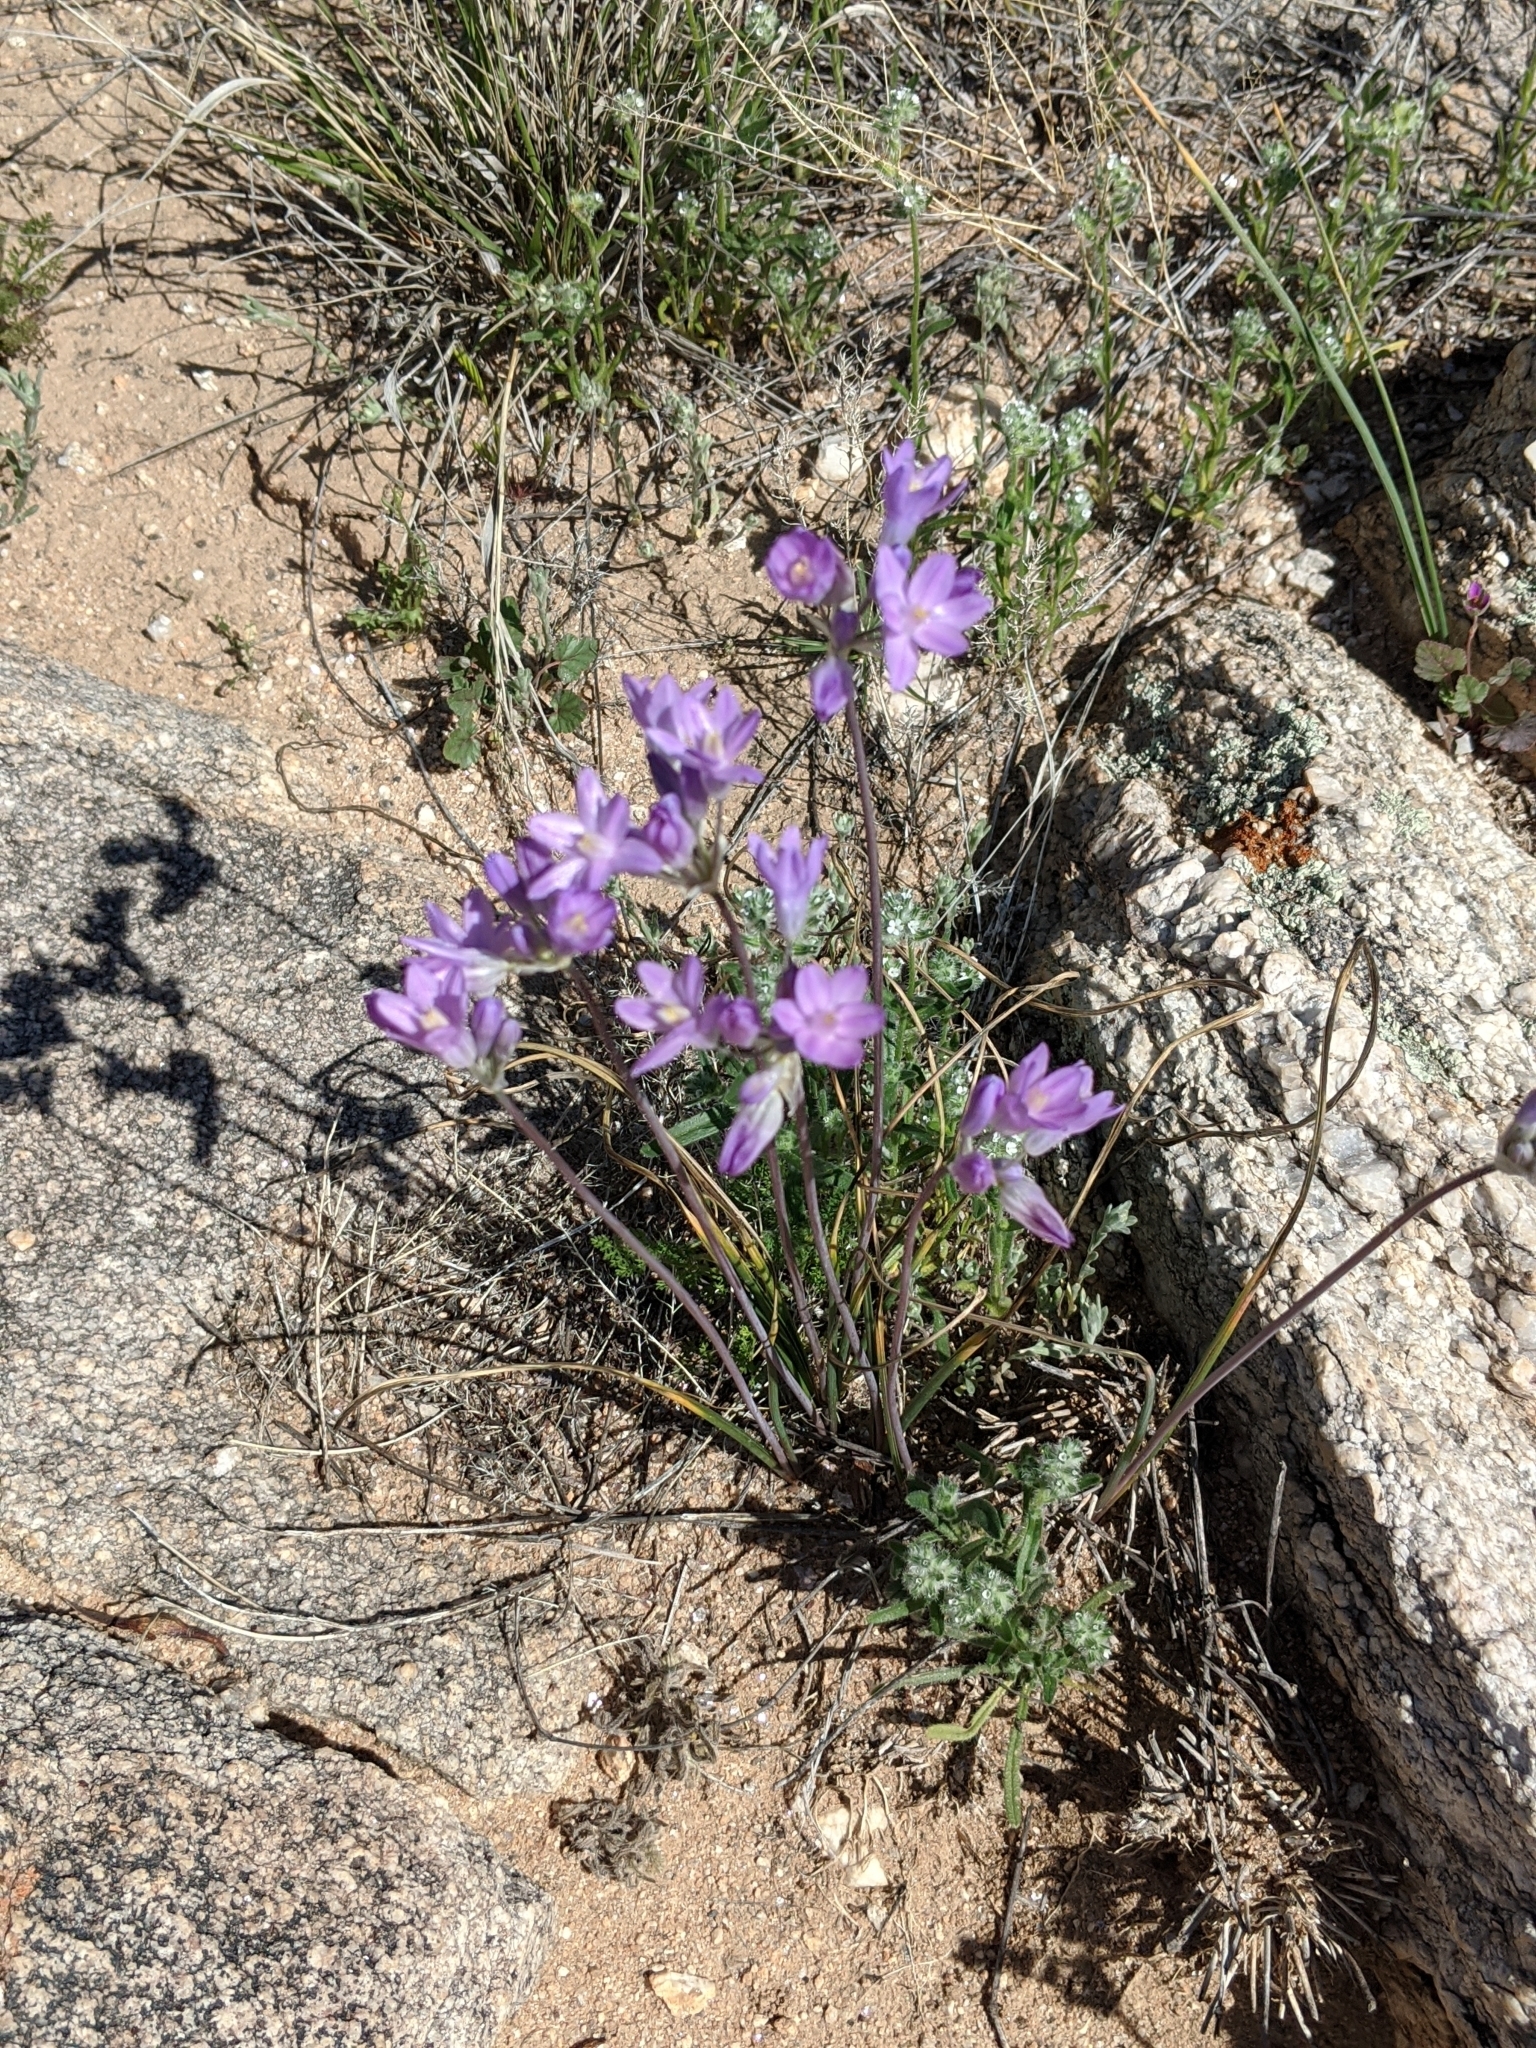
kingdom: Plantae
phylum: Tracheophyta
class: Liliopsida
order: Asparagales
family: Asparagaceae
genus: Dipterostemon
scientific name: Dipterostemon capitatus
